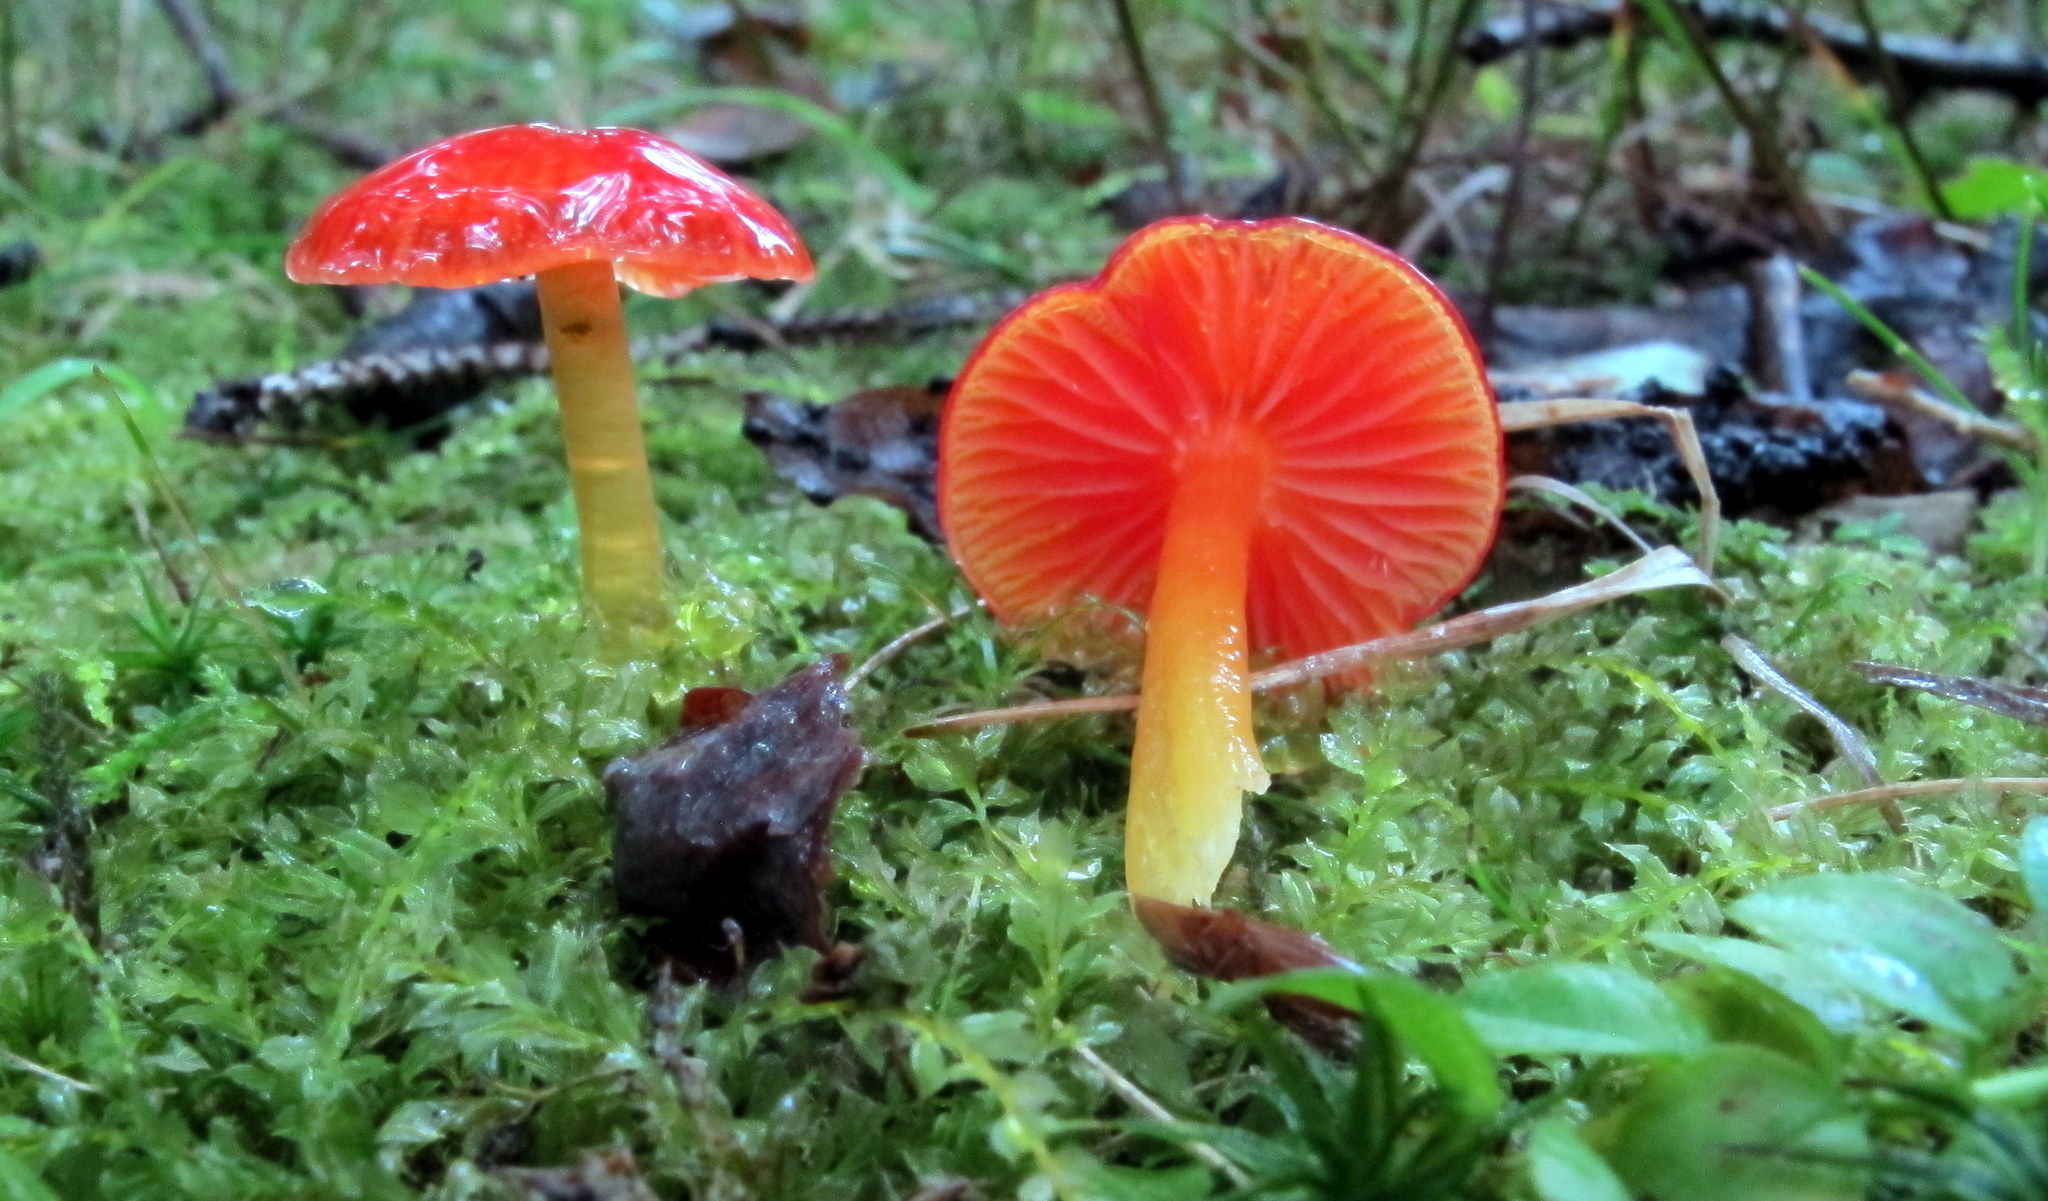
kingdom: Fungi
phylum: Basidiomycota
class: Agaricomycetes
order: Agaricales
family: Hygrophoraceae
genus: Hygrocybe
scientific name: Hygrocybe minutula
